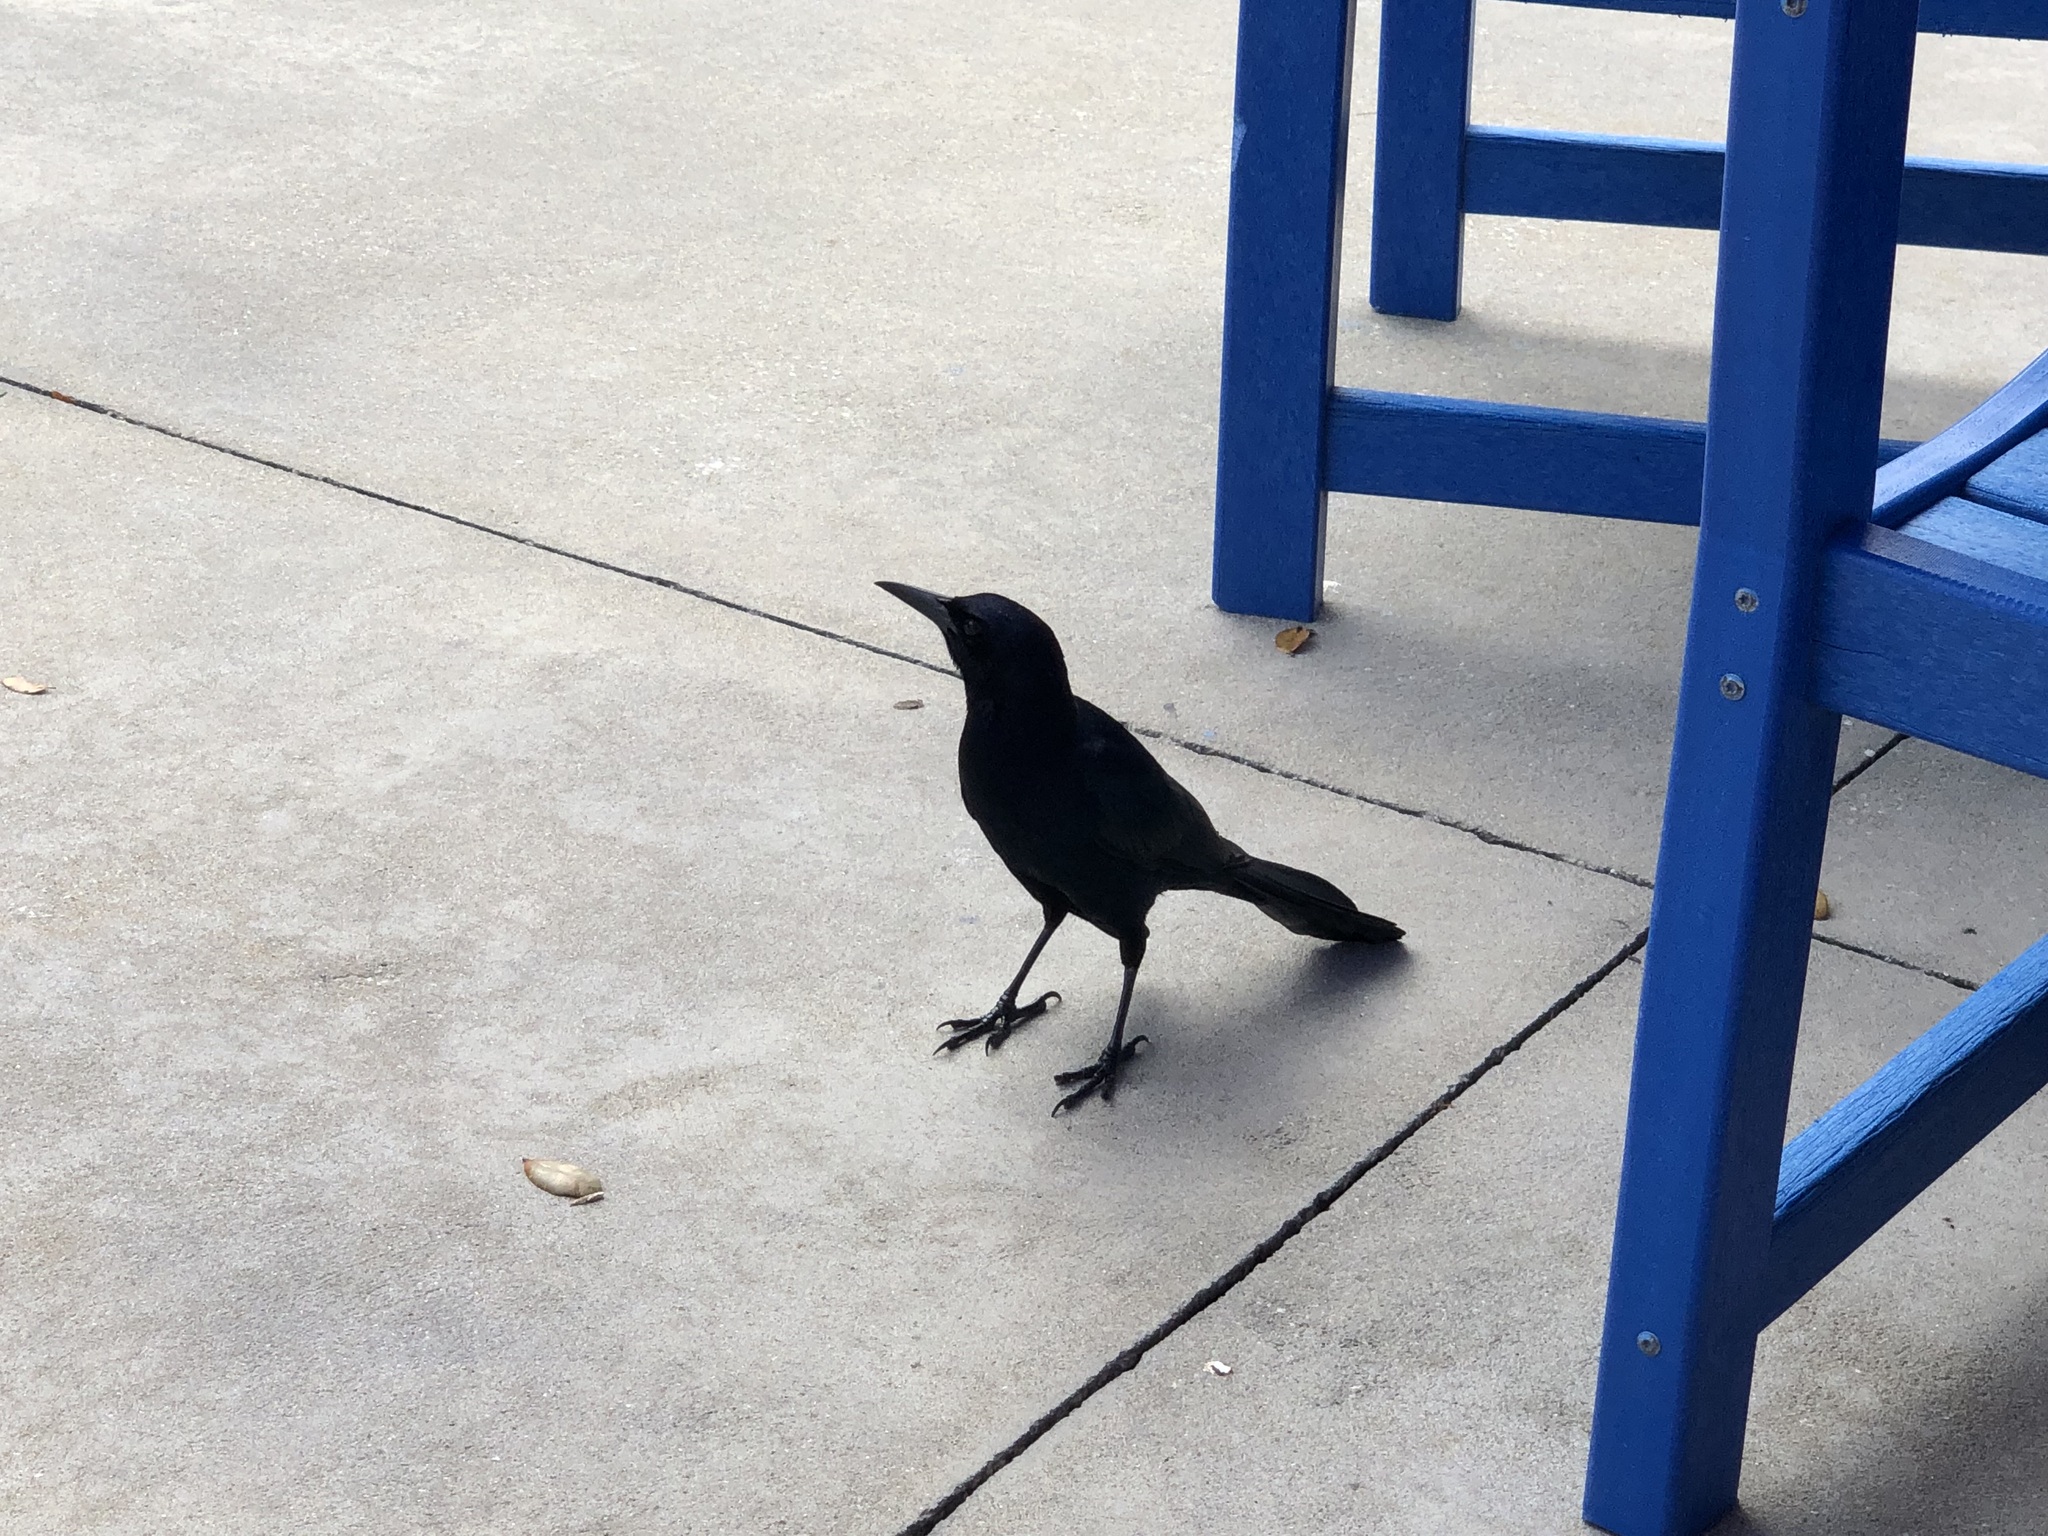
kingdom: Animalia
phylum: Chordata
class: Aves
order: Passeriformes
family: Icteridae
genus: Quiscalus
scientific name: Quiscalus major
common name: Boat-tailed grackle
